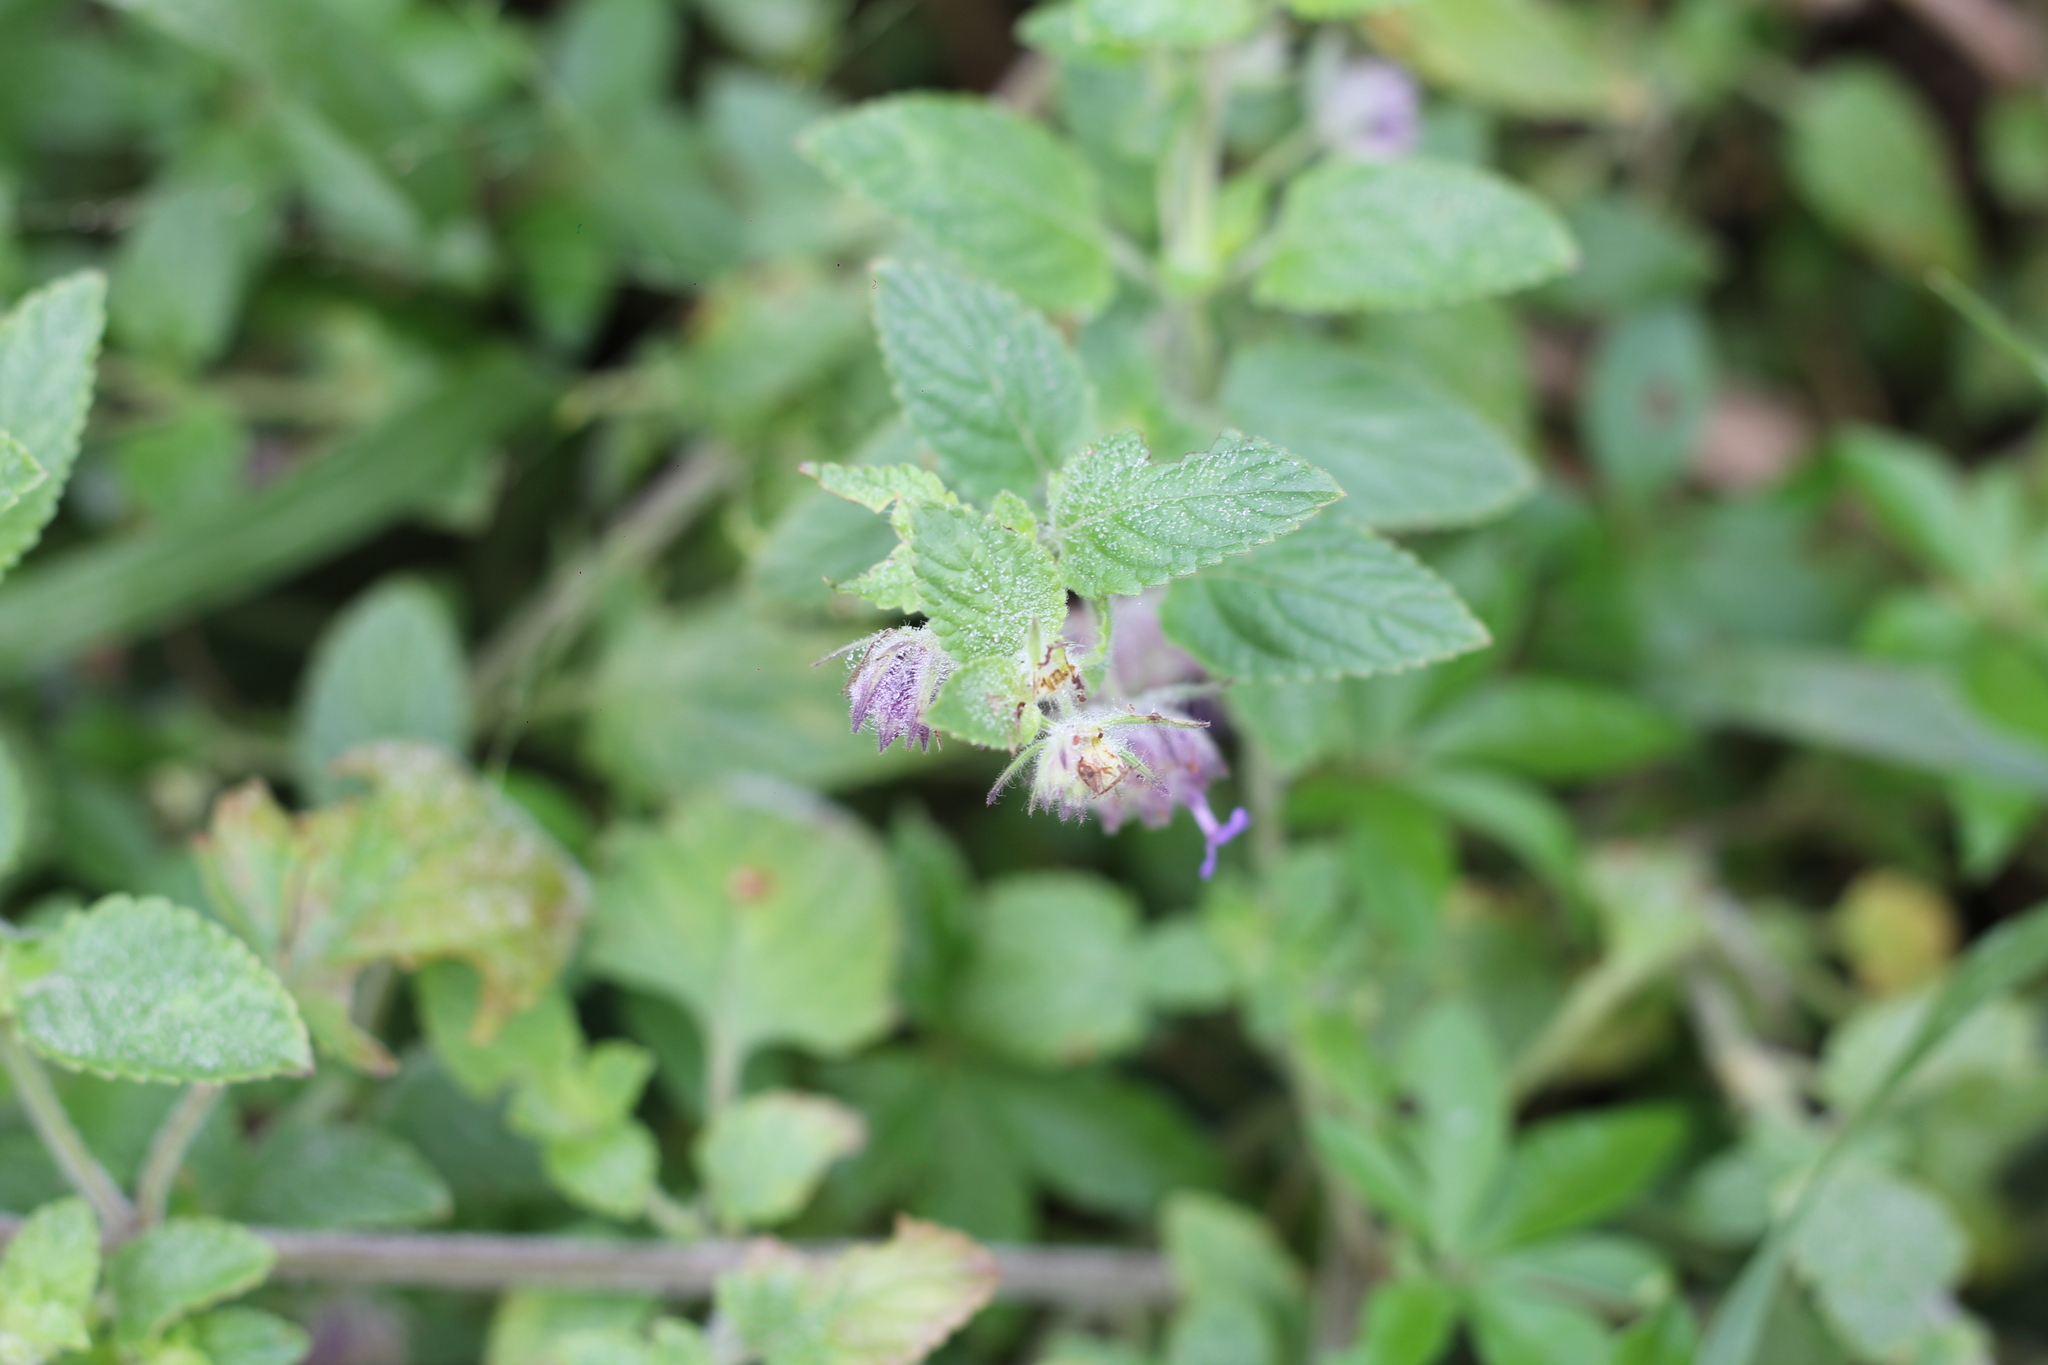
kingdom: Plantae
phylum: Tracheophyta
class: Magnoliopsida
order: Lamiales
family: Lamiaceae
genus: Marsypianthes
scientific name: Marsypianthes chamaedrys
